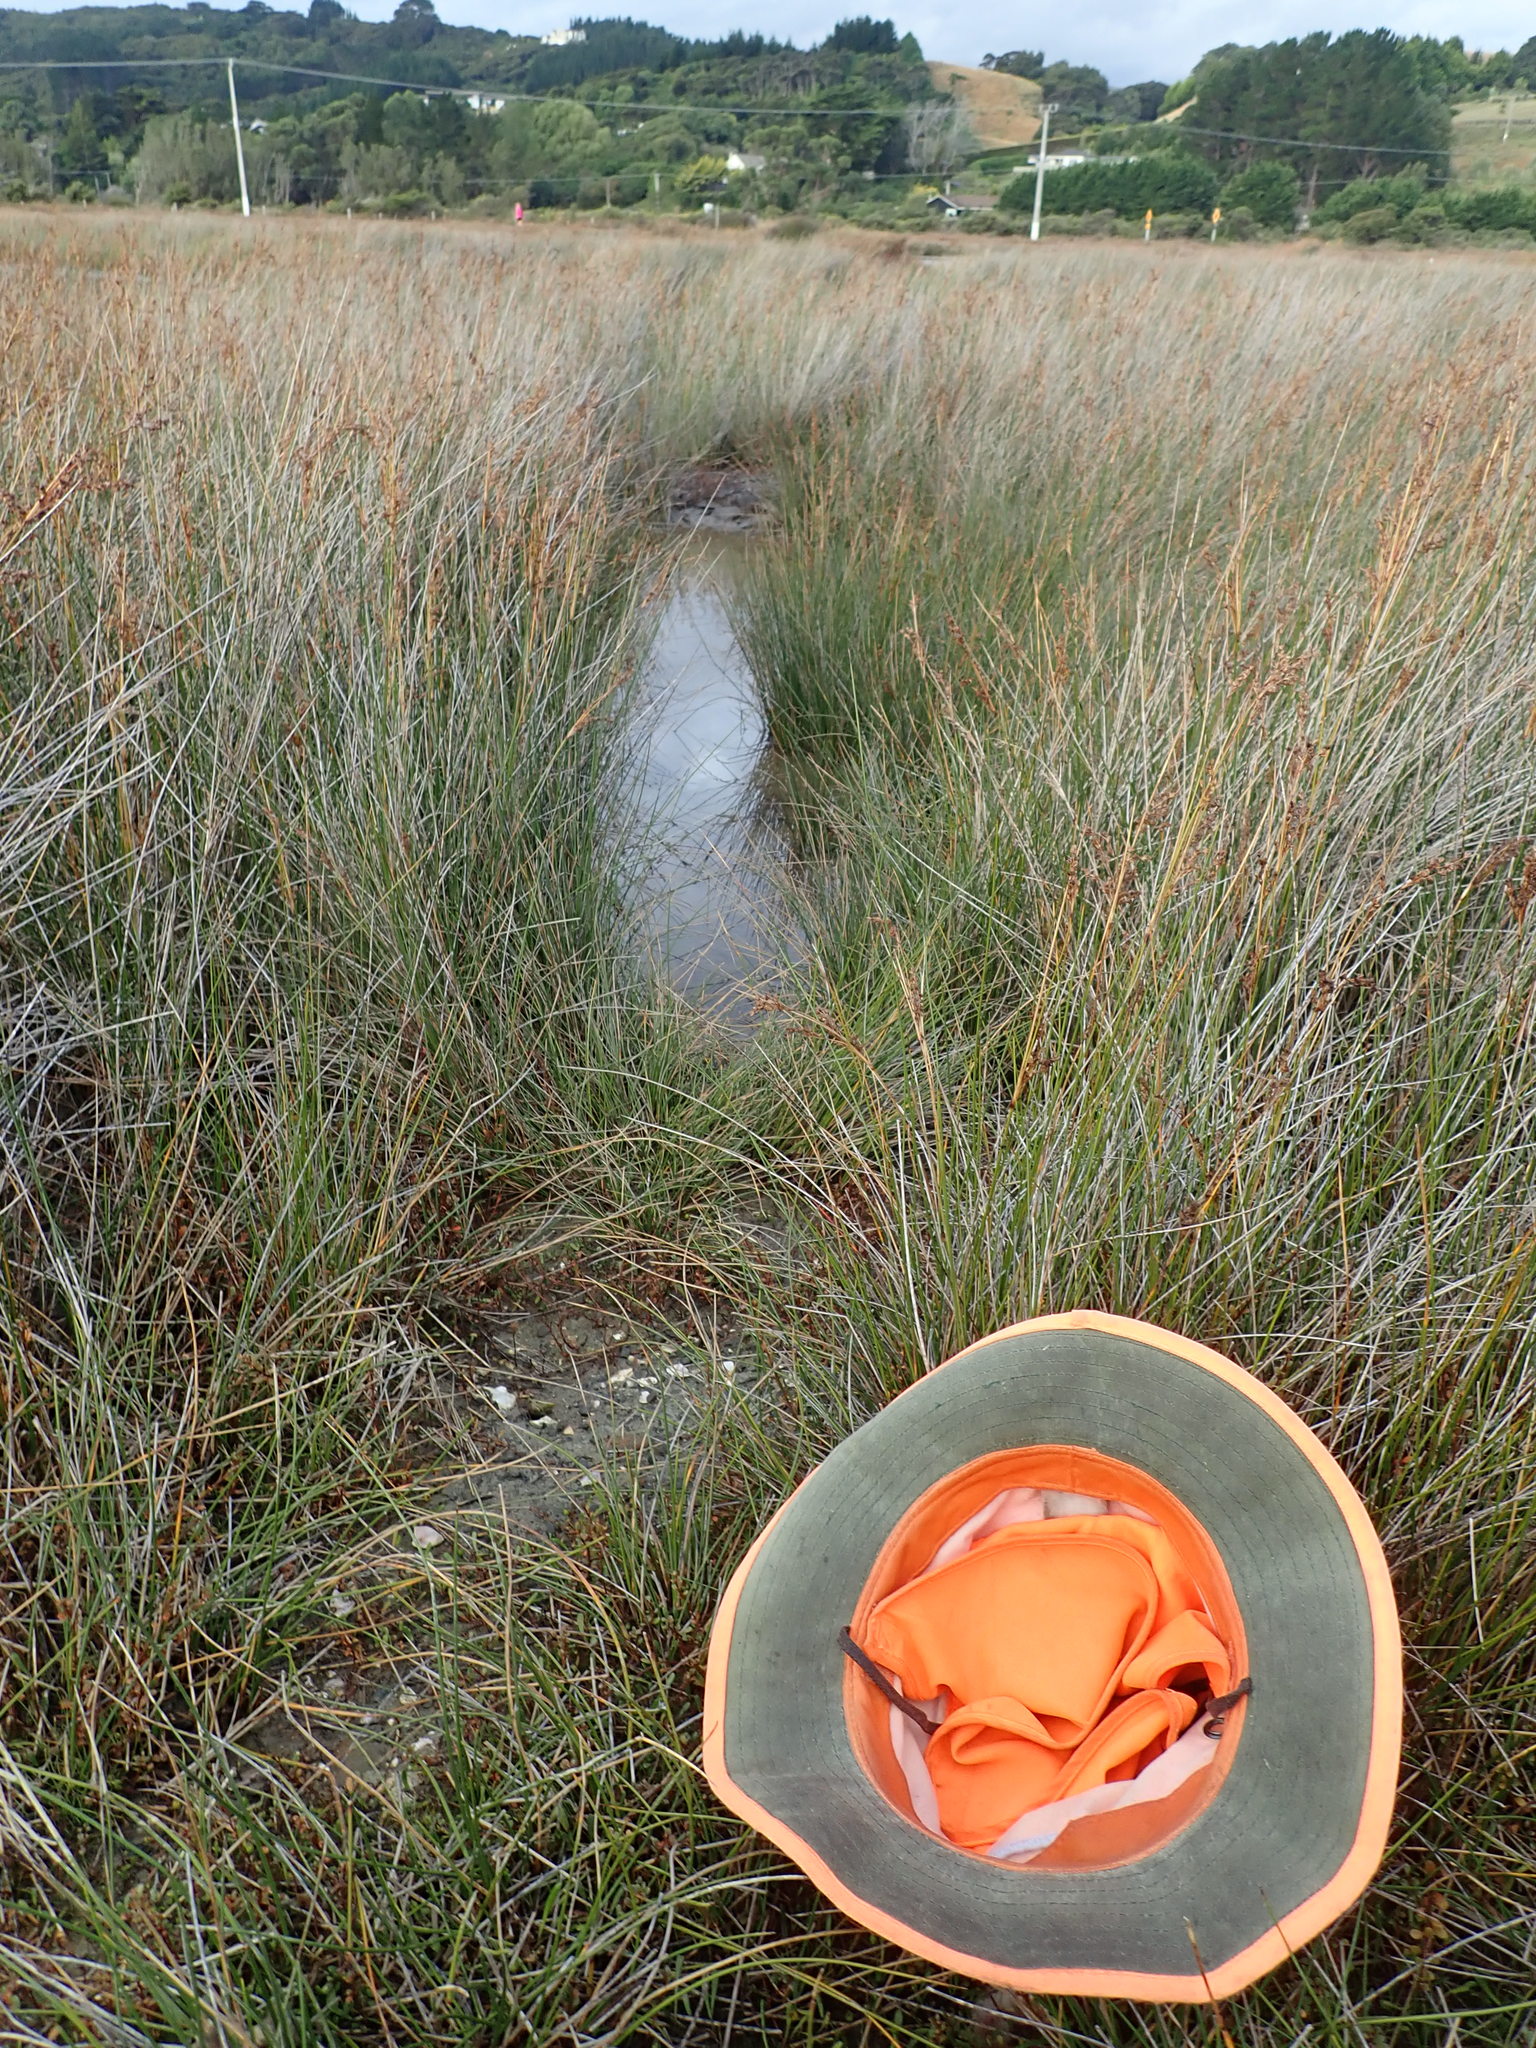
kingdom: Plantae
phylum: Tracheophyta
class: Magnoliopsida
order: Asterales
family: Goodeniaceae
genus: Goodenia
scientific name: Goodenia radicans
